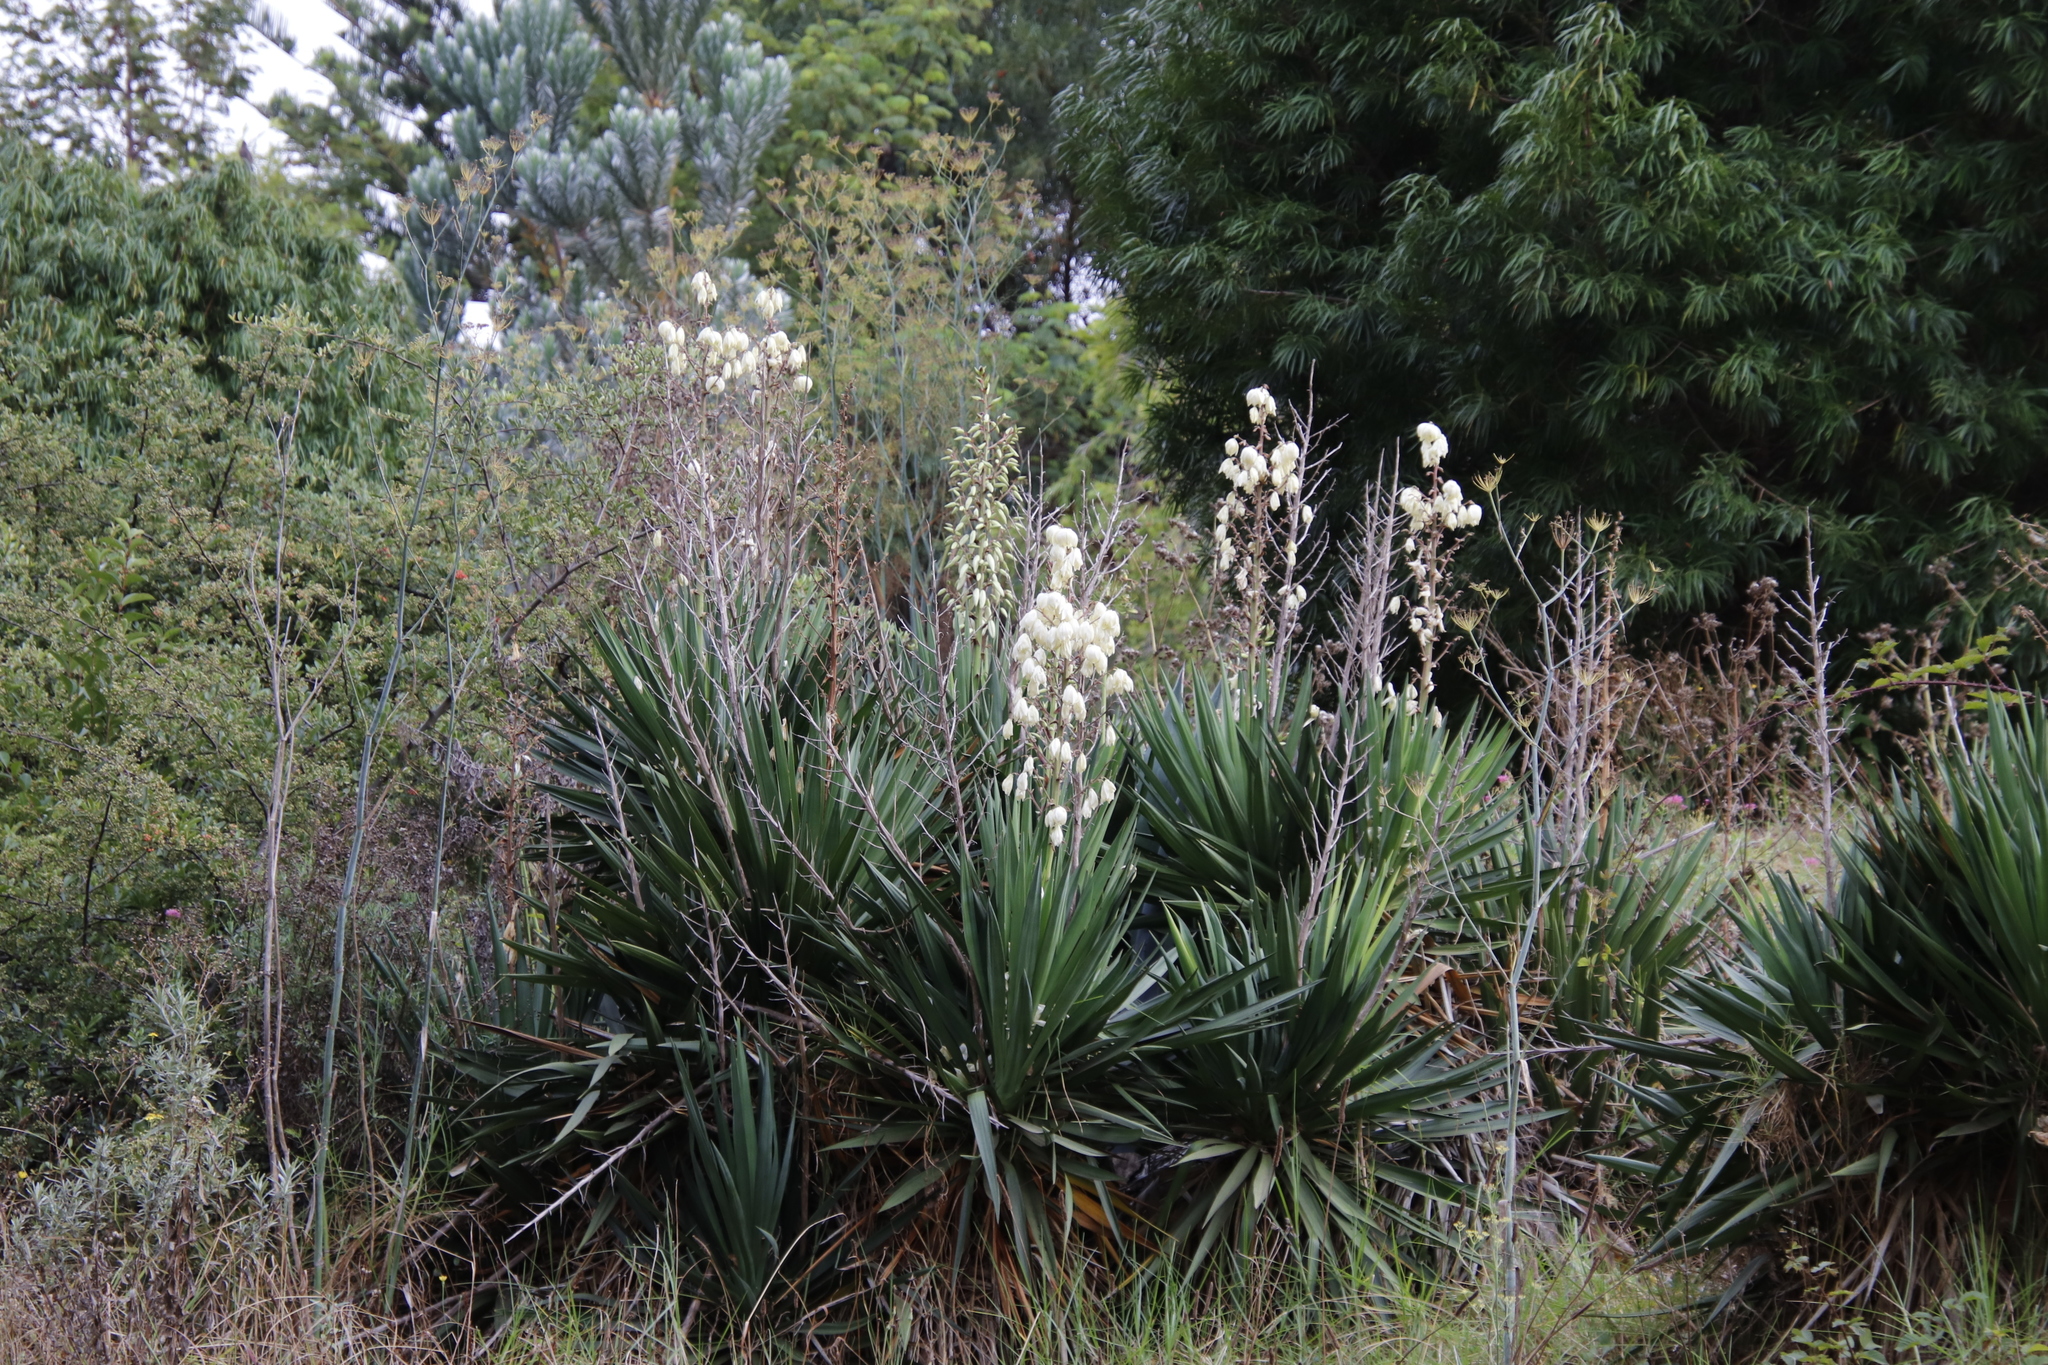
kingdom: Plantae
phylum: Tracheophyta
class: Liliopsida
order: Asparagales
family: Asparagaceae
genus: Yucca
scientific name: Yucca gloriosa
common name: Spanish-dagger
